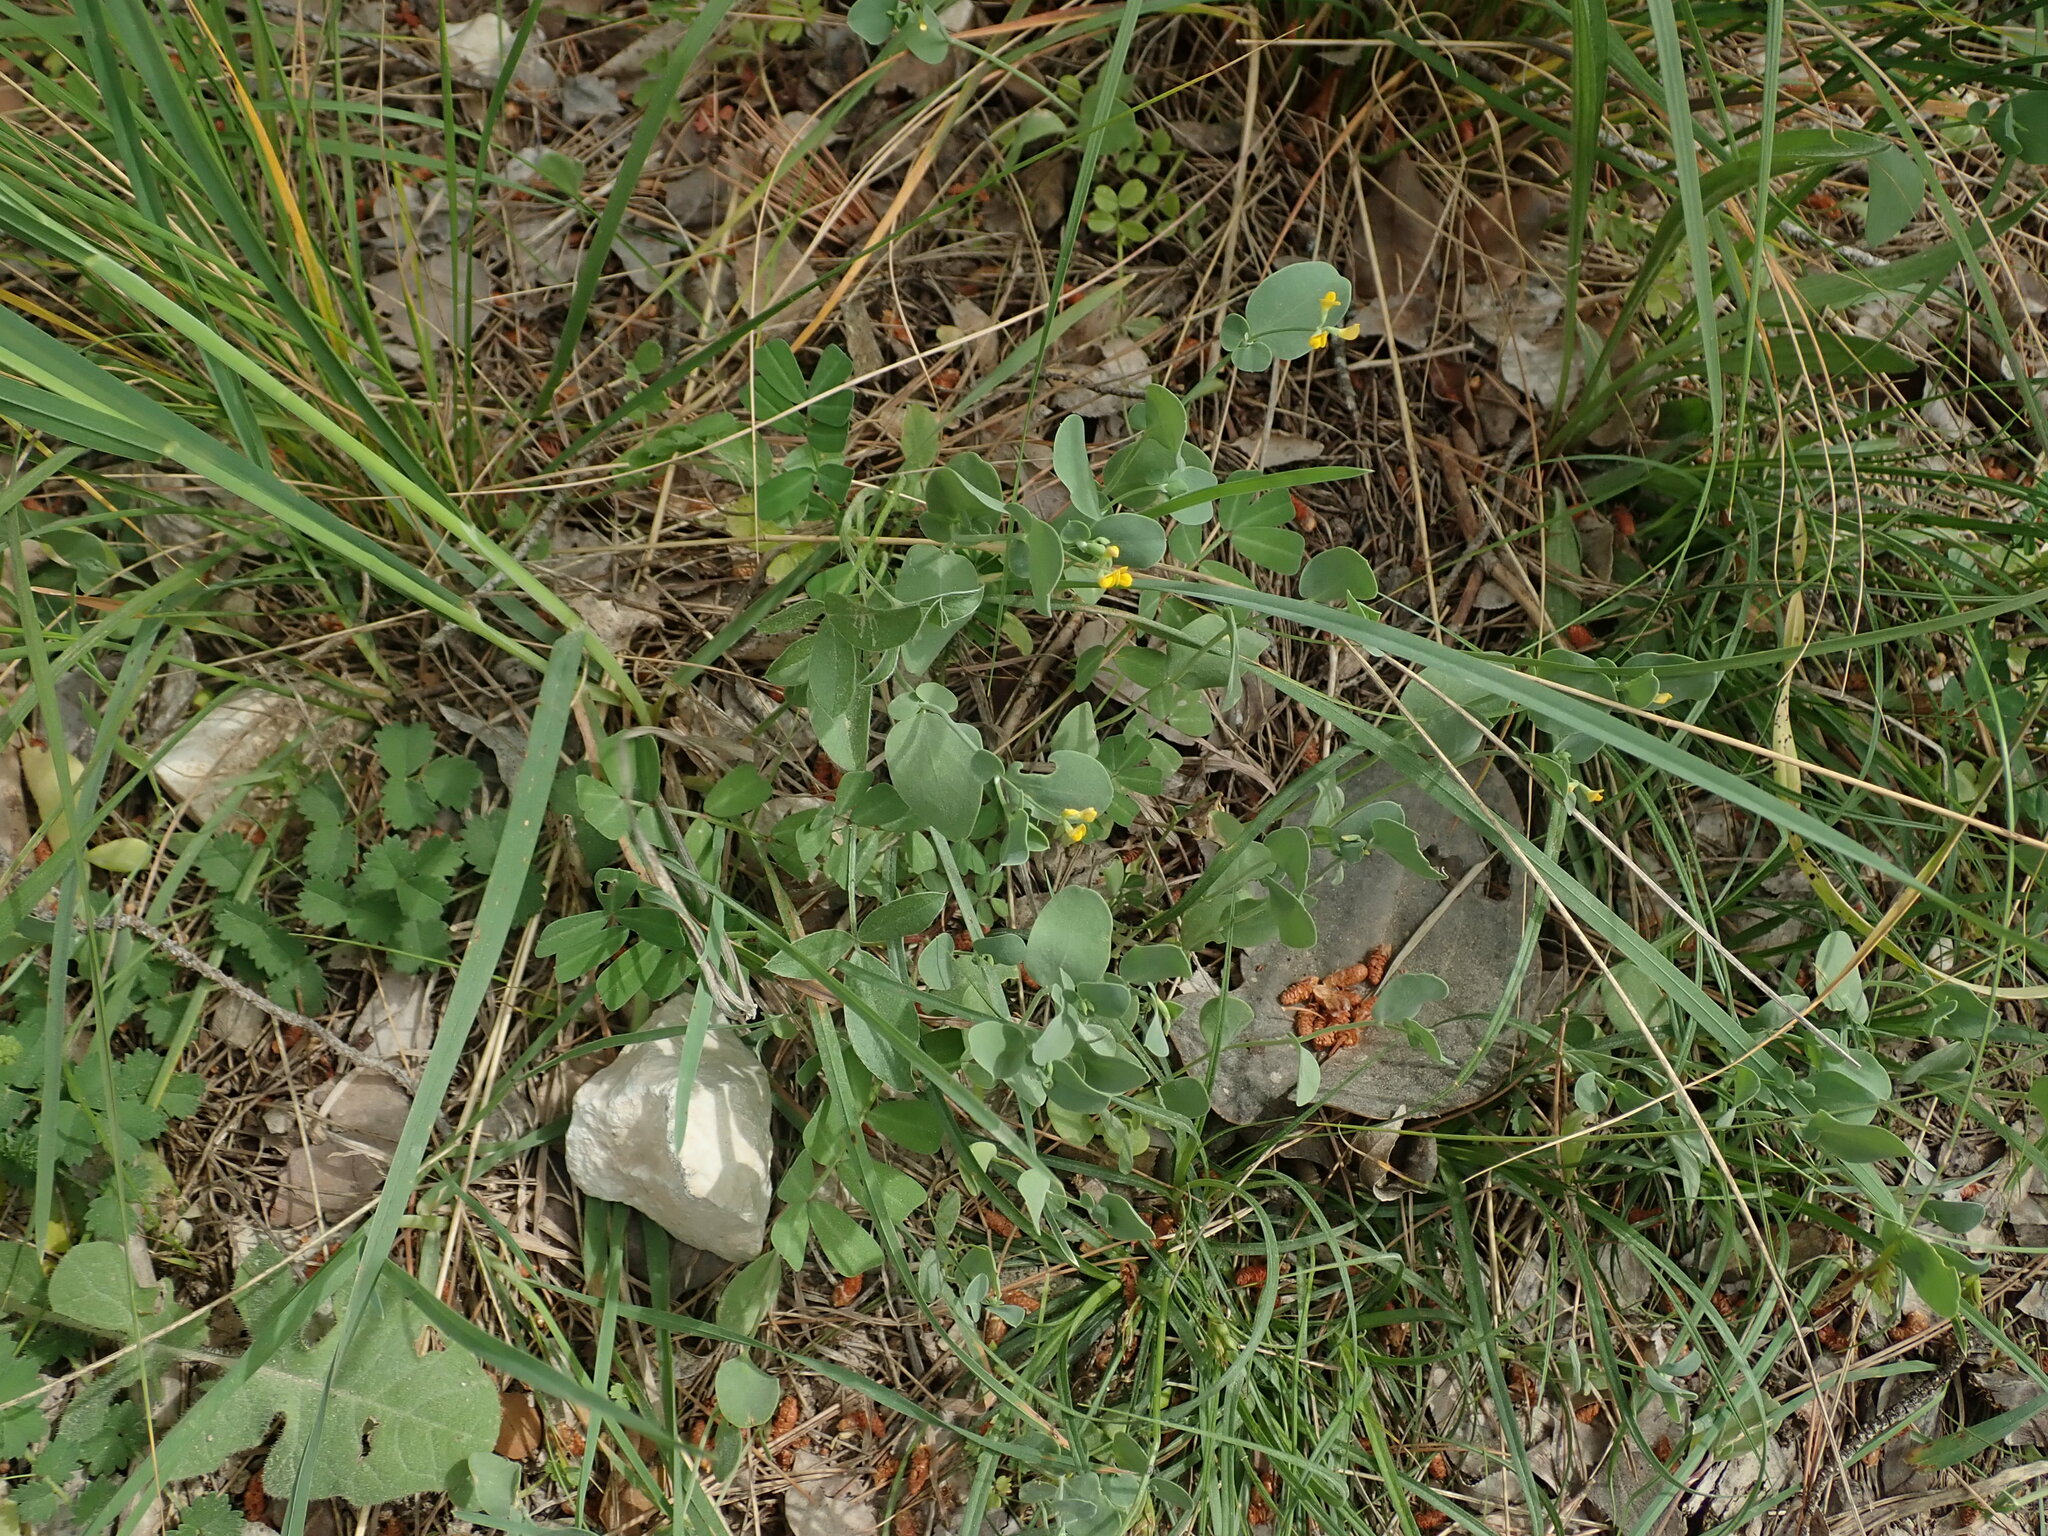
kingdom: Plantae
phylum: Tracheophyta
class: Magnoliopsida
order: Fabales
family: Fabaceae
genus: Coronilla
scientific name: Coronilla scorpioides
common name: Annual scorpion-vetch
